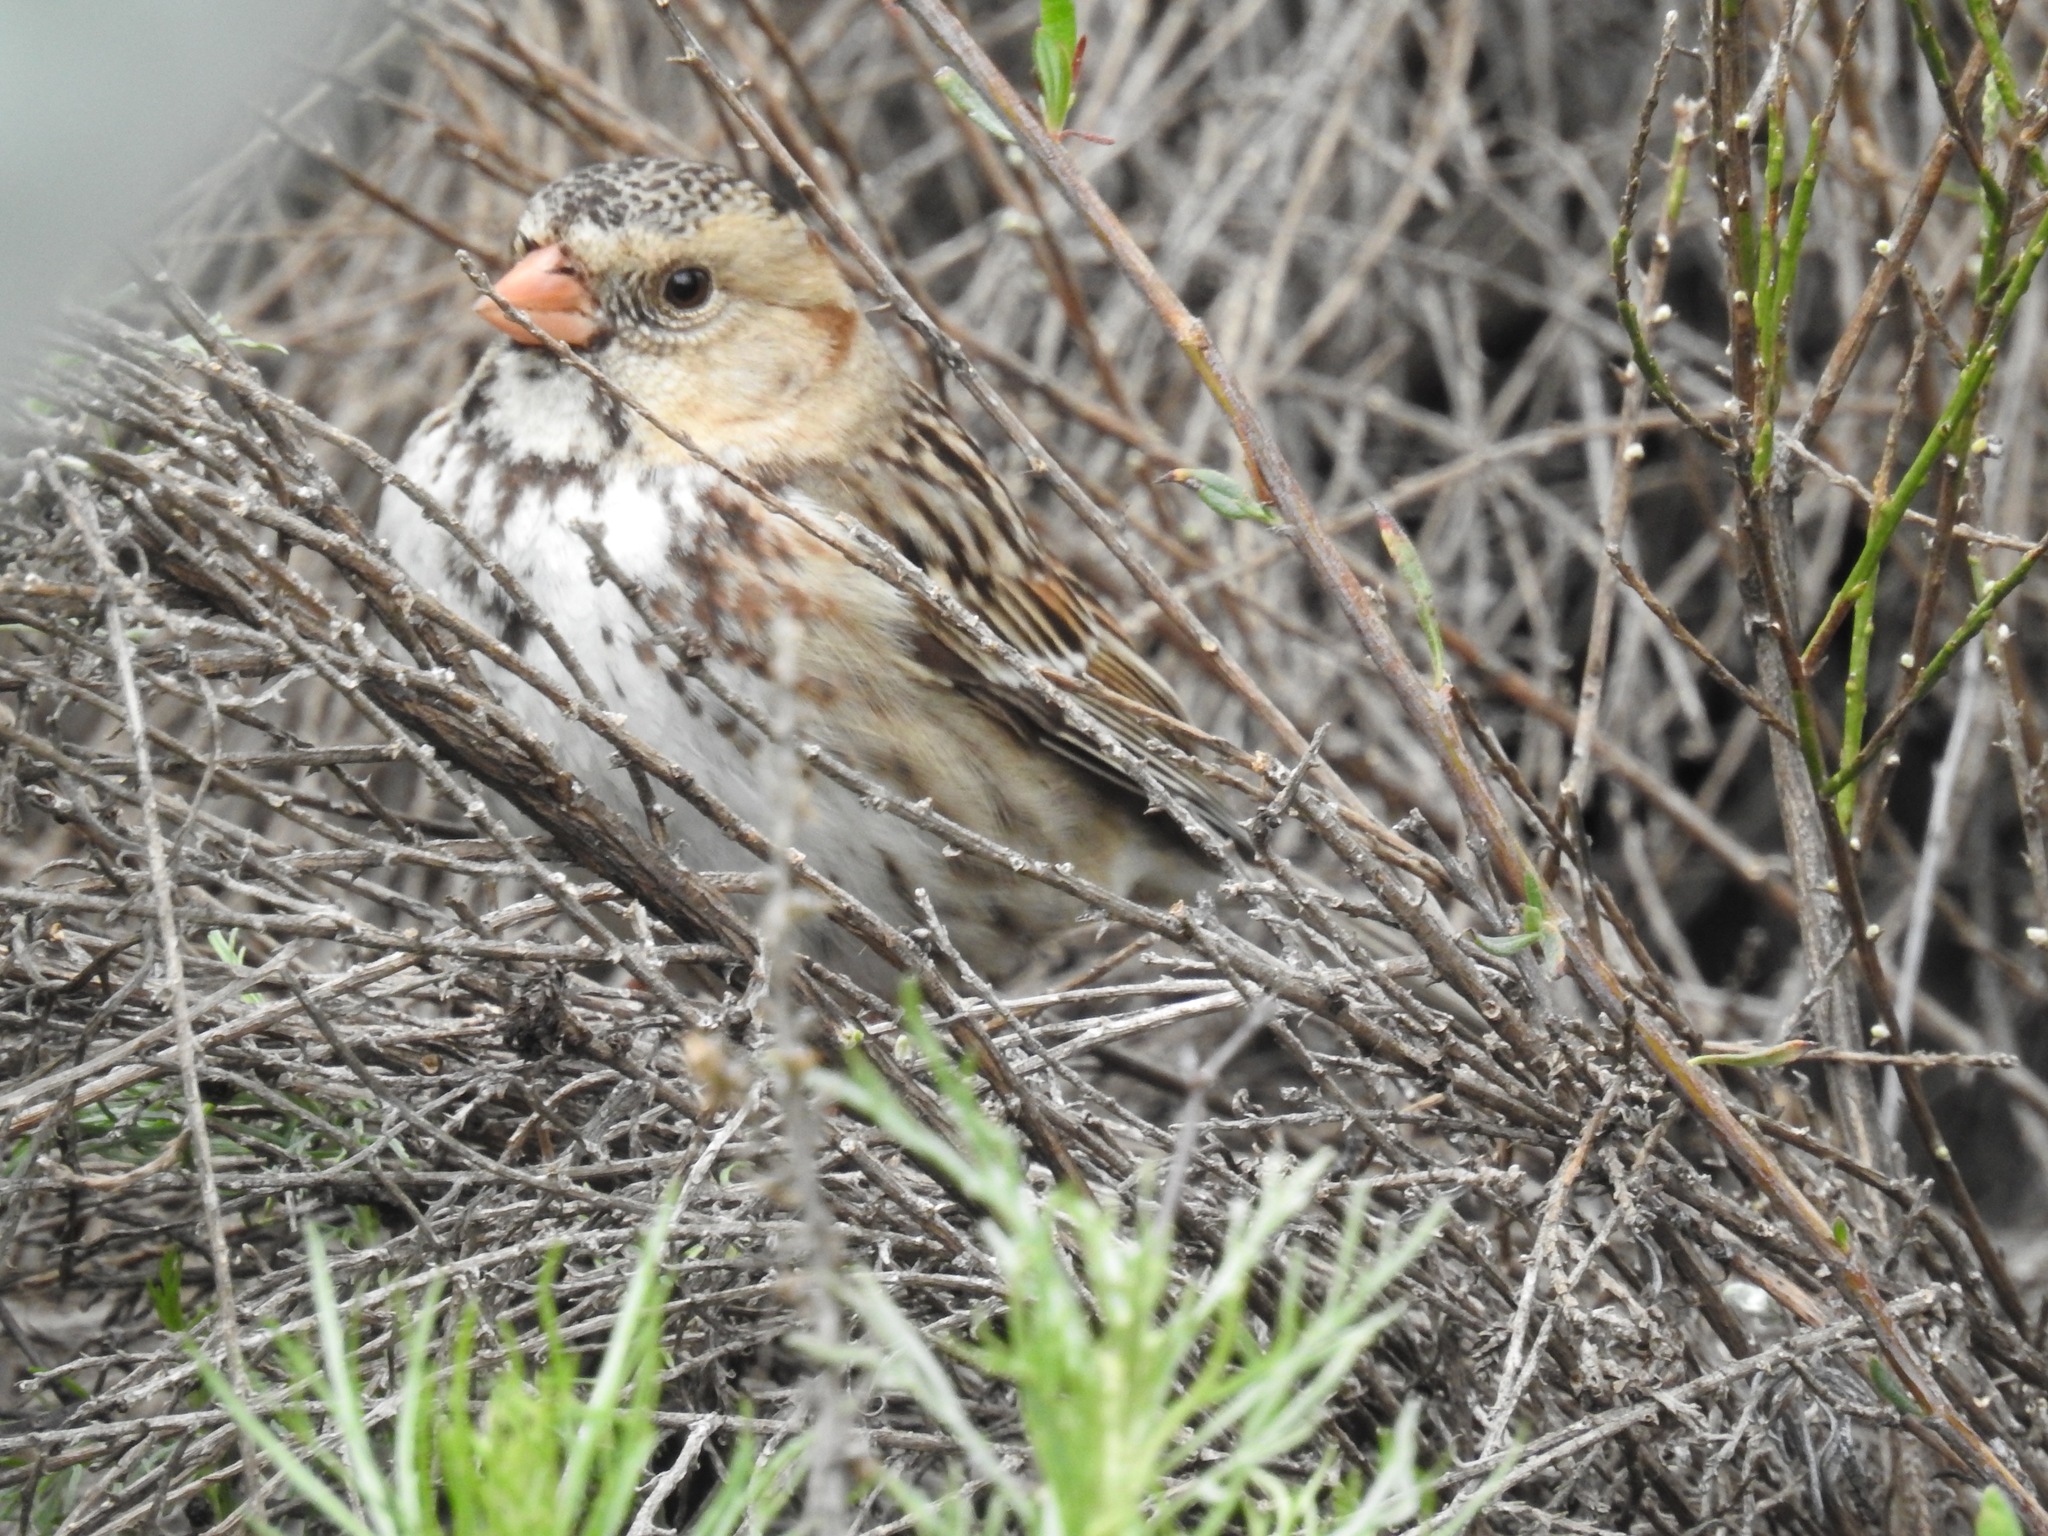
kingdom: Animalia
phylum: Chordata
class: Aves
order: Passeriformes
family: Passerellidae
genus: Zonotrichia
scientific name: Zonotrichia querula
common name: Harris's sparrow
